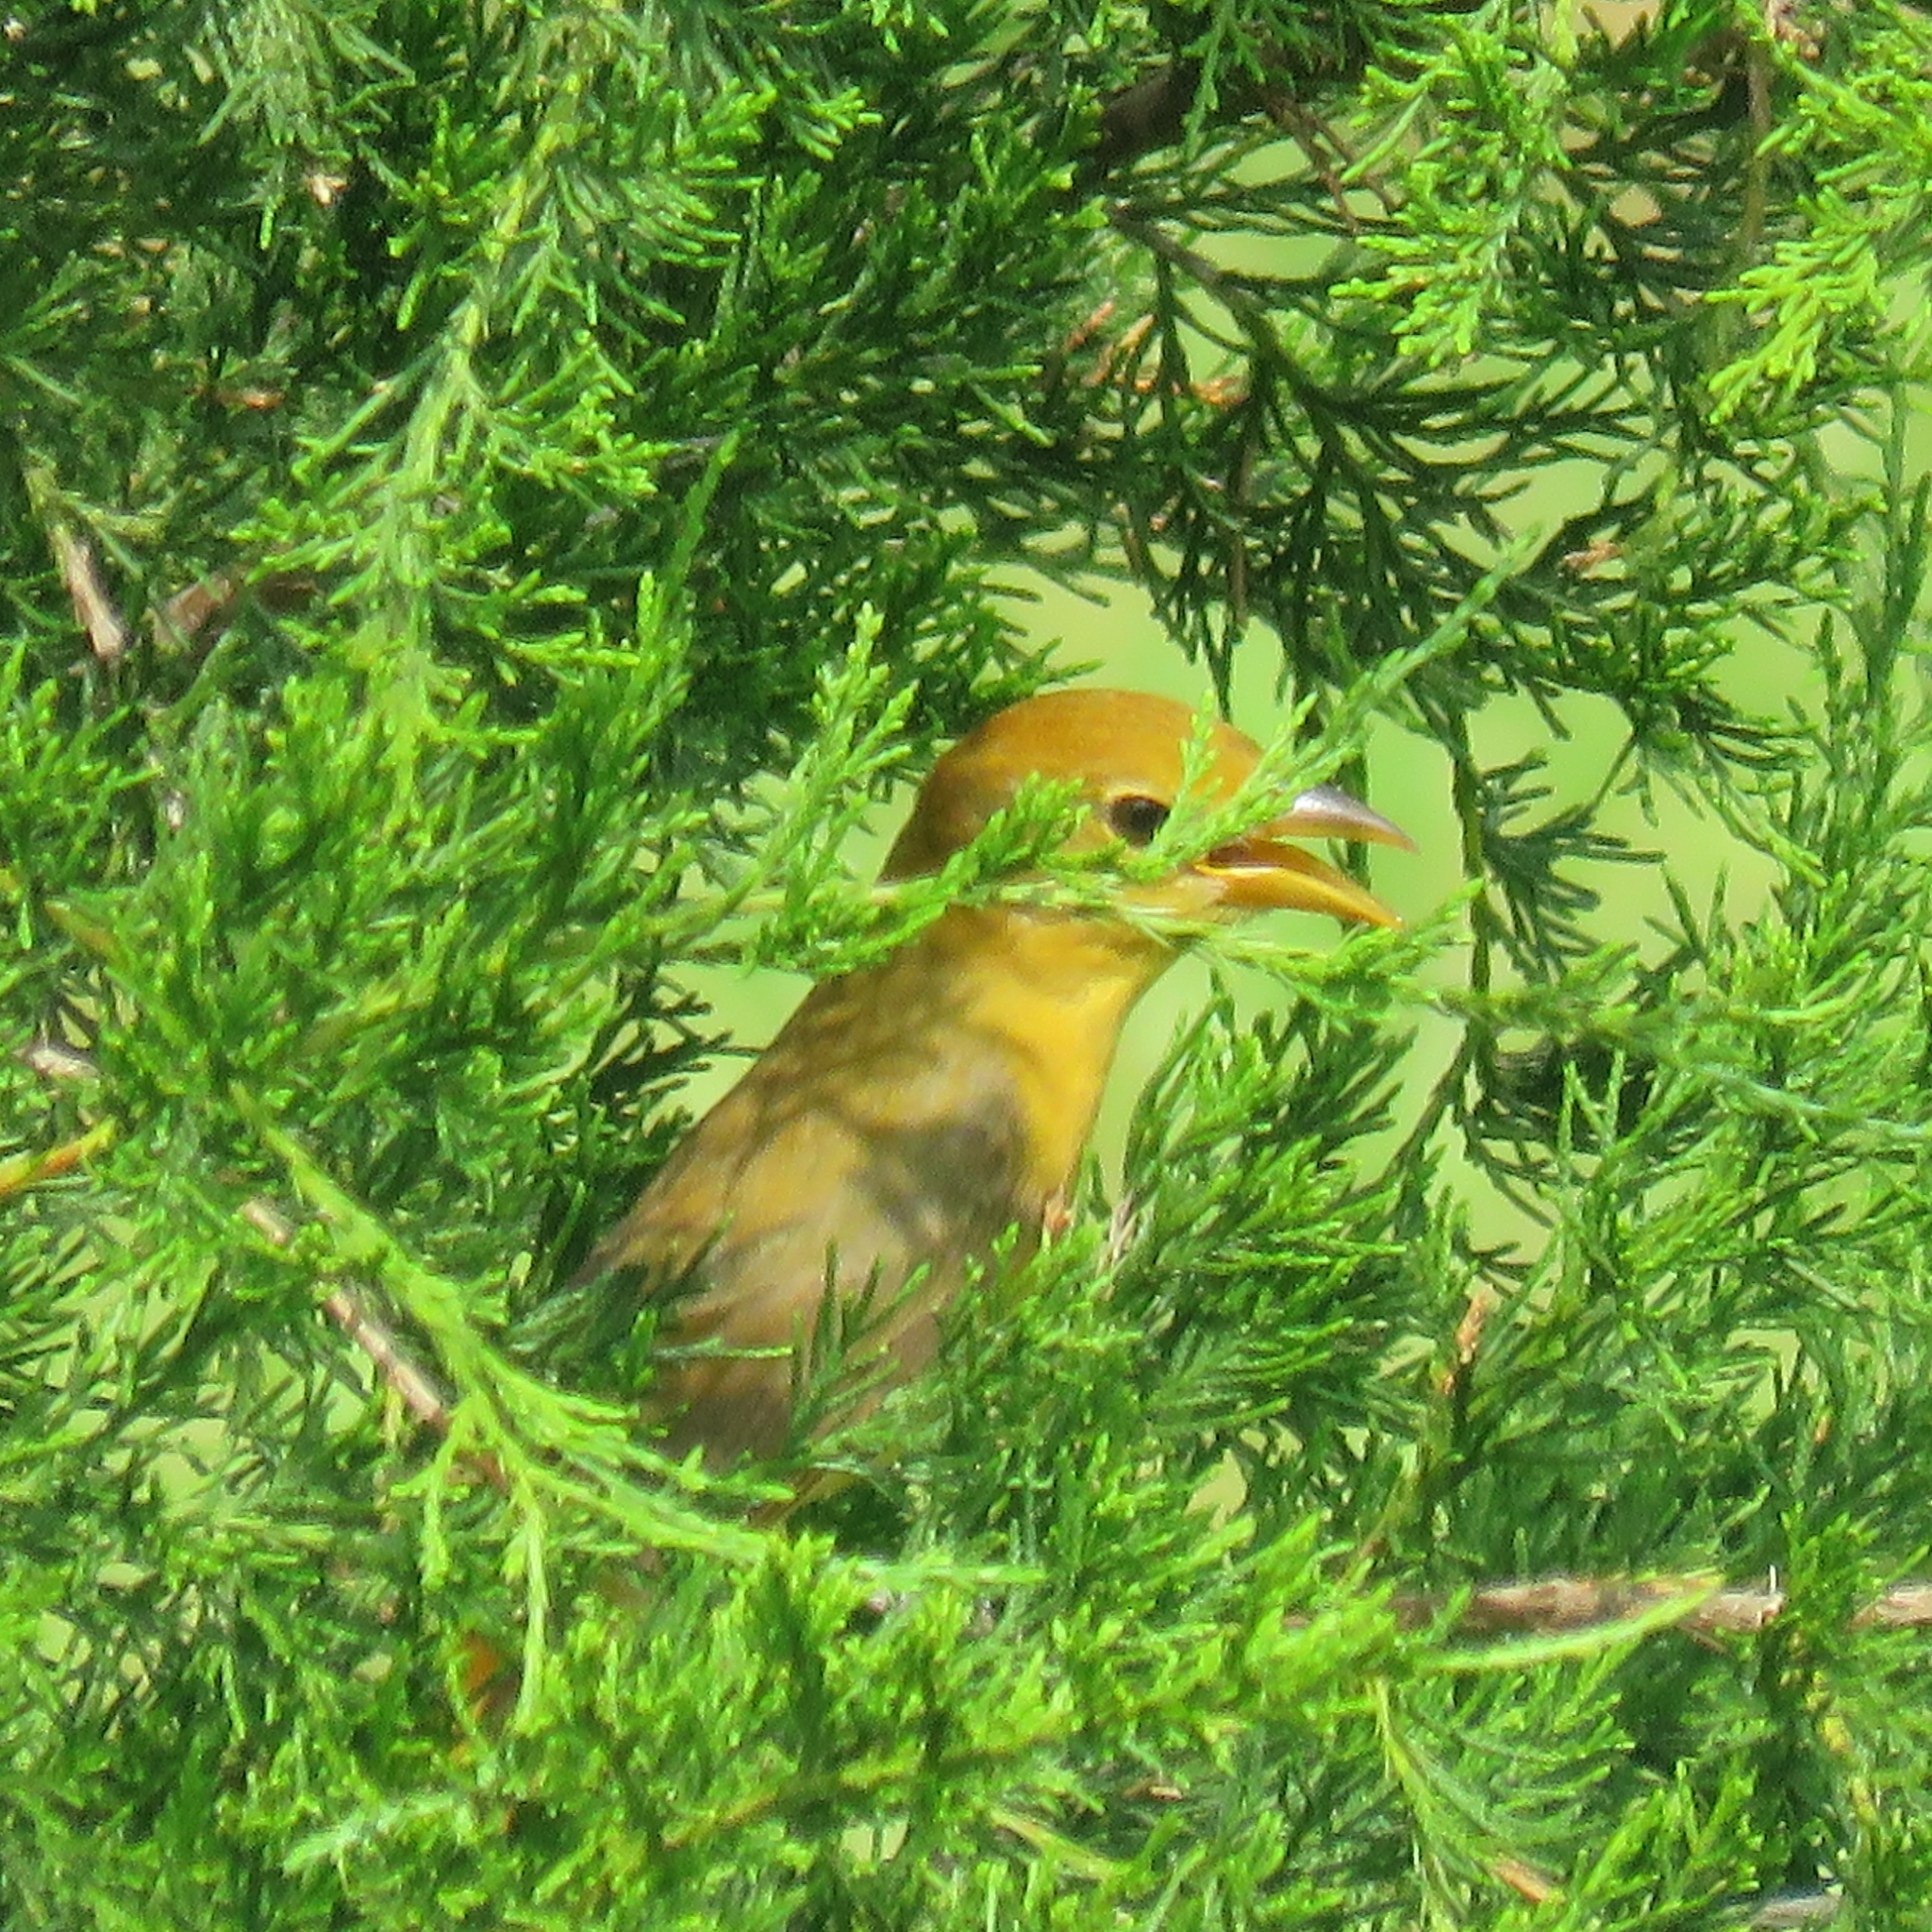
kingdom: Animalia
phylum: Chordata
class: Aves
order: Passeriformes
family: Cardinalidae
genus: Piranga
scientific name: Piranga rubra
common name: Summer tanager
